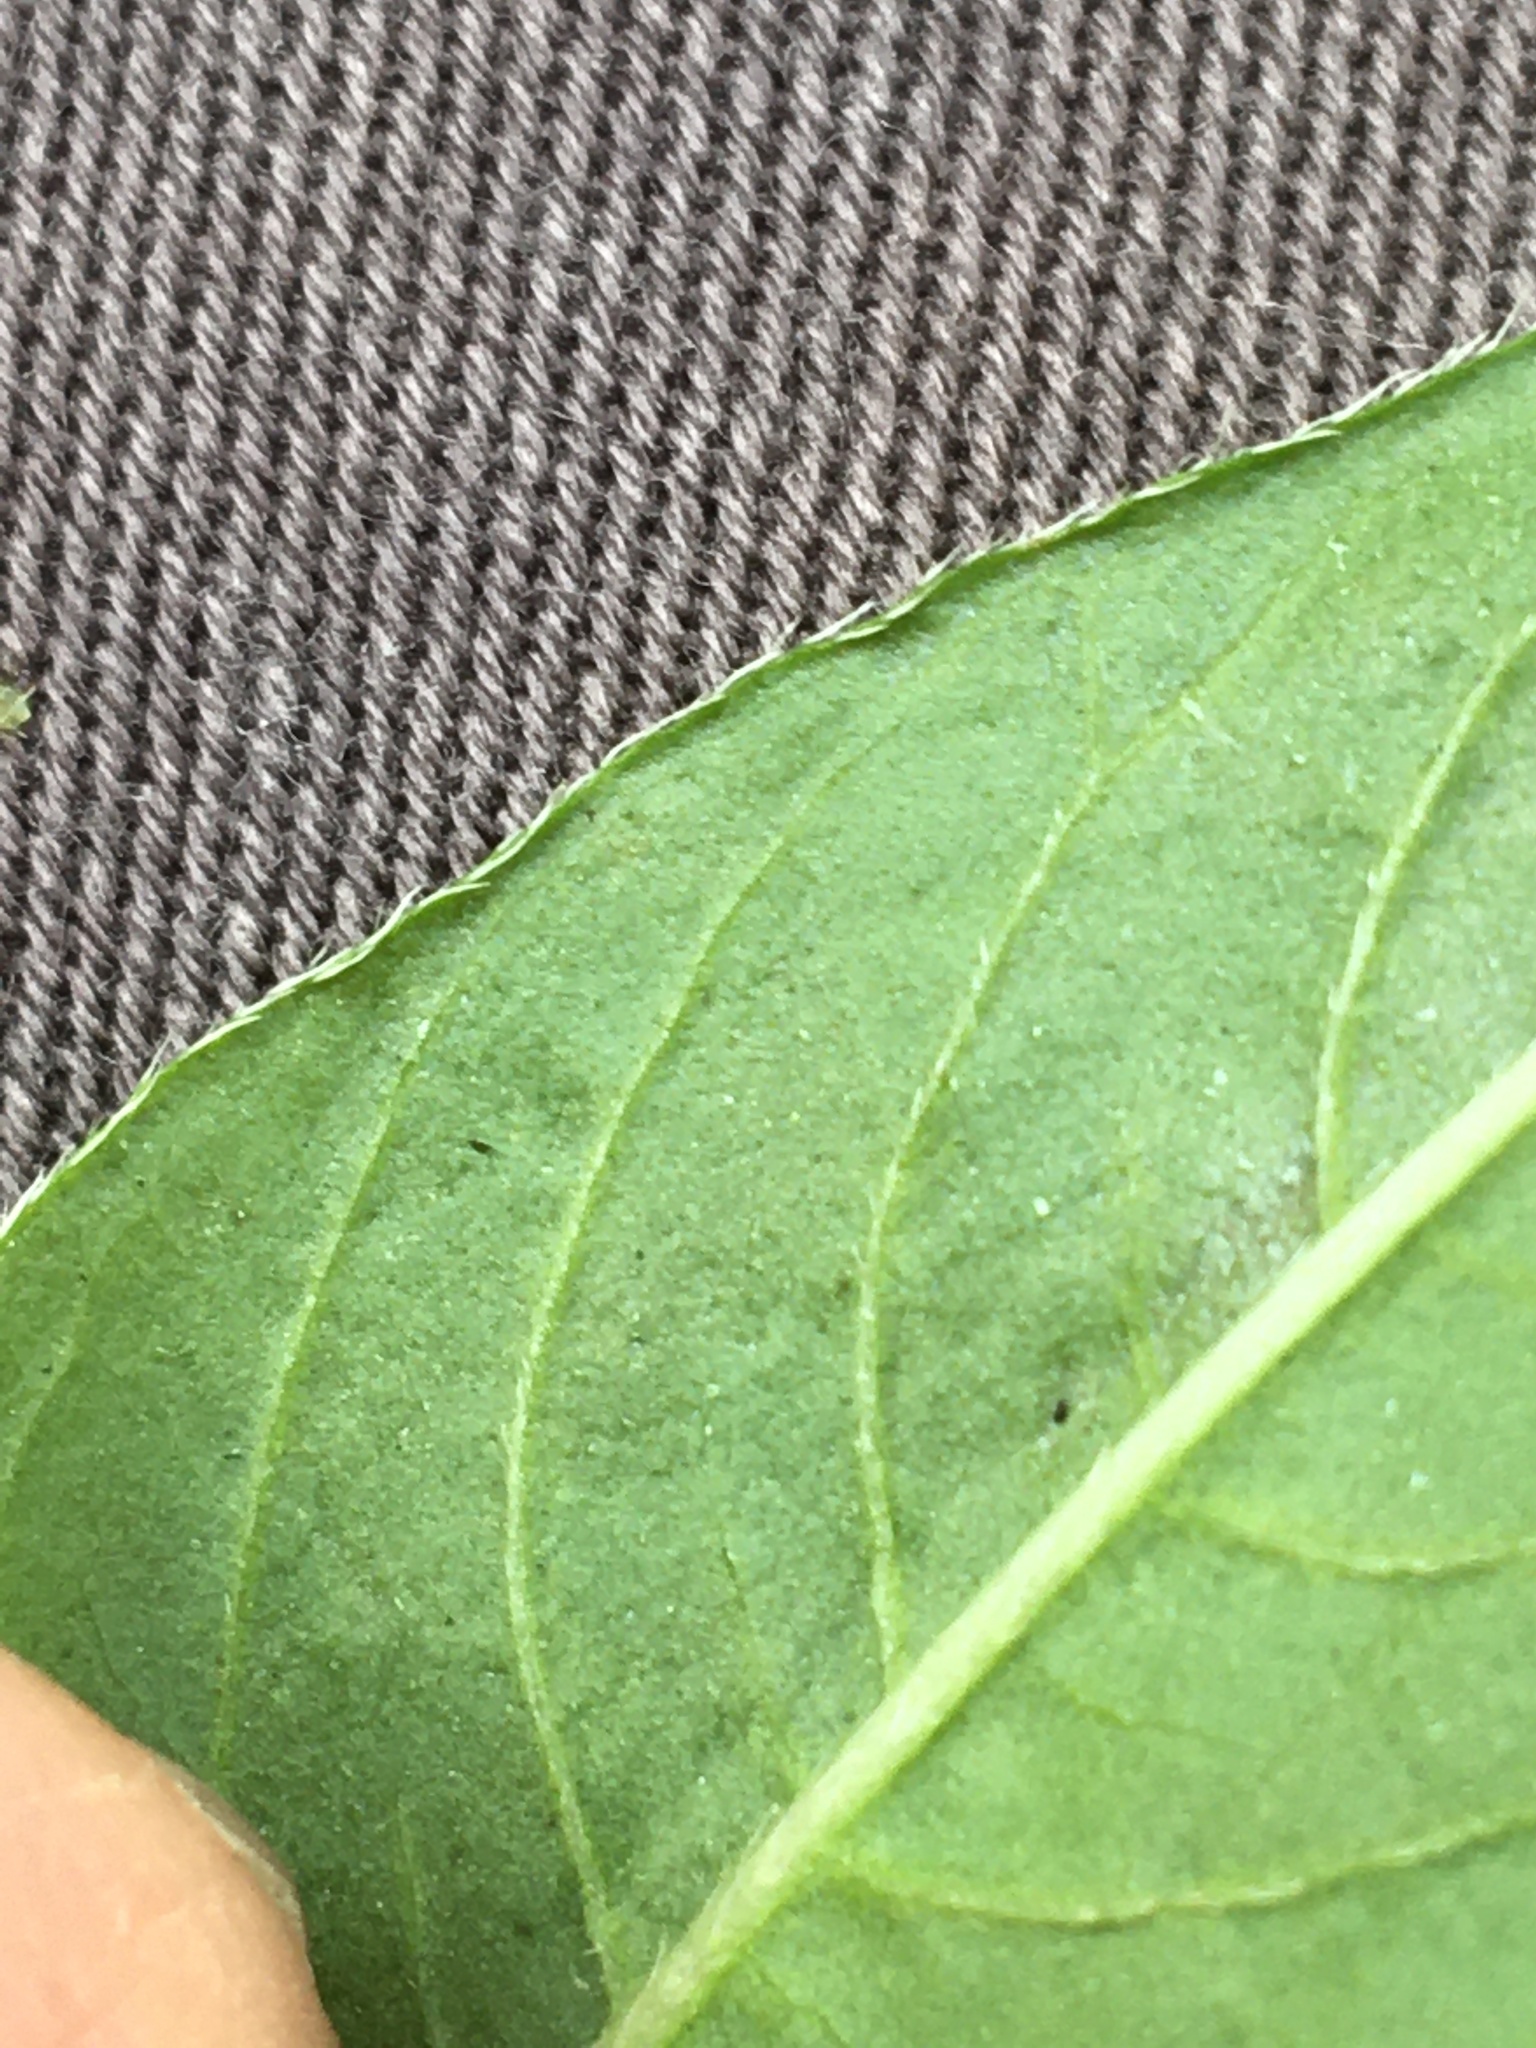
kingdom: Plantae
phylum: Tracheophyta
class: Magnoliopsida
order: Caryophyllales
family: Polygonaceae
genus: Persicaria
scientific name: Persicaria extremiorientalis
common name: Far-eastern smartweed
